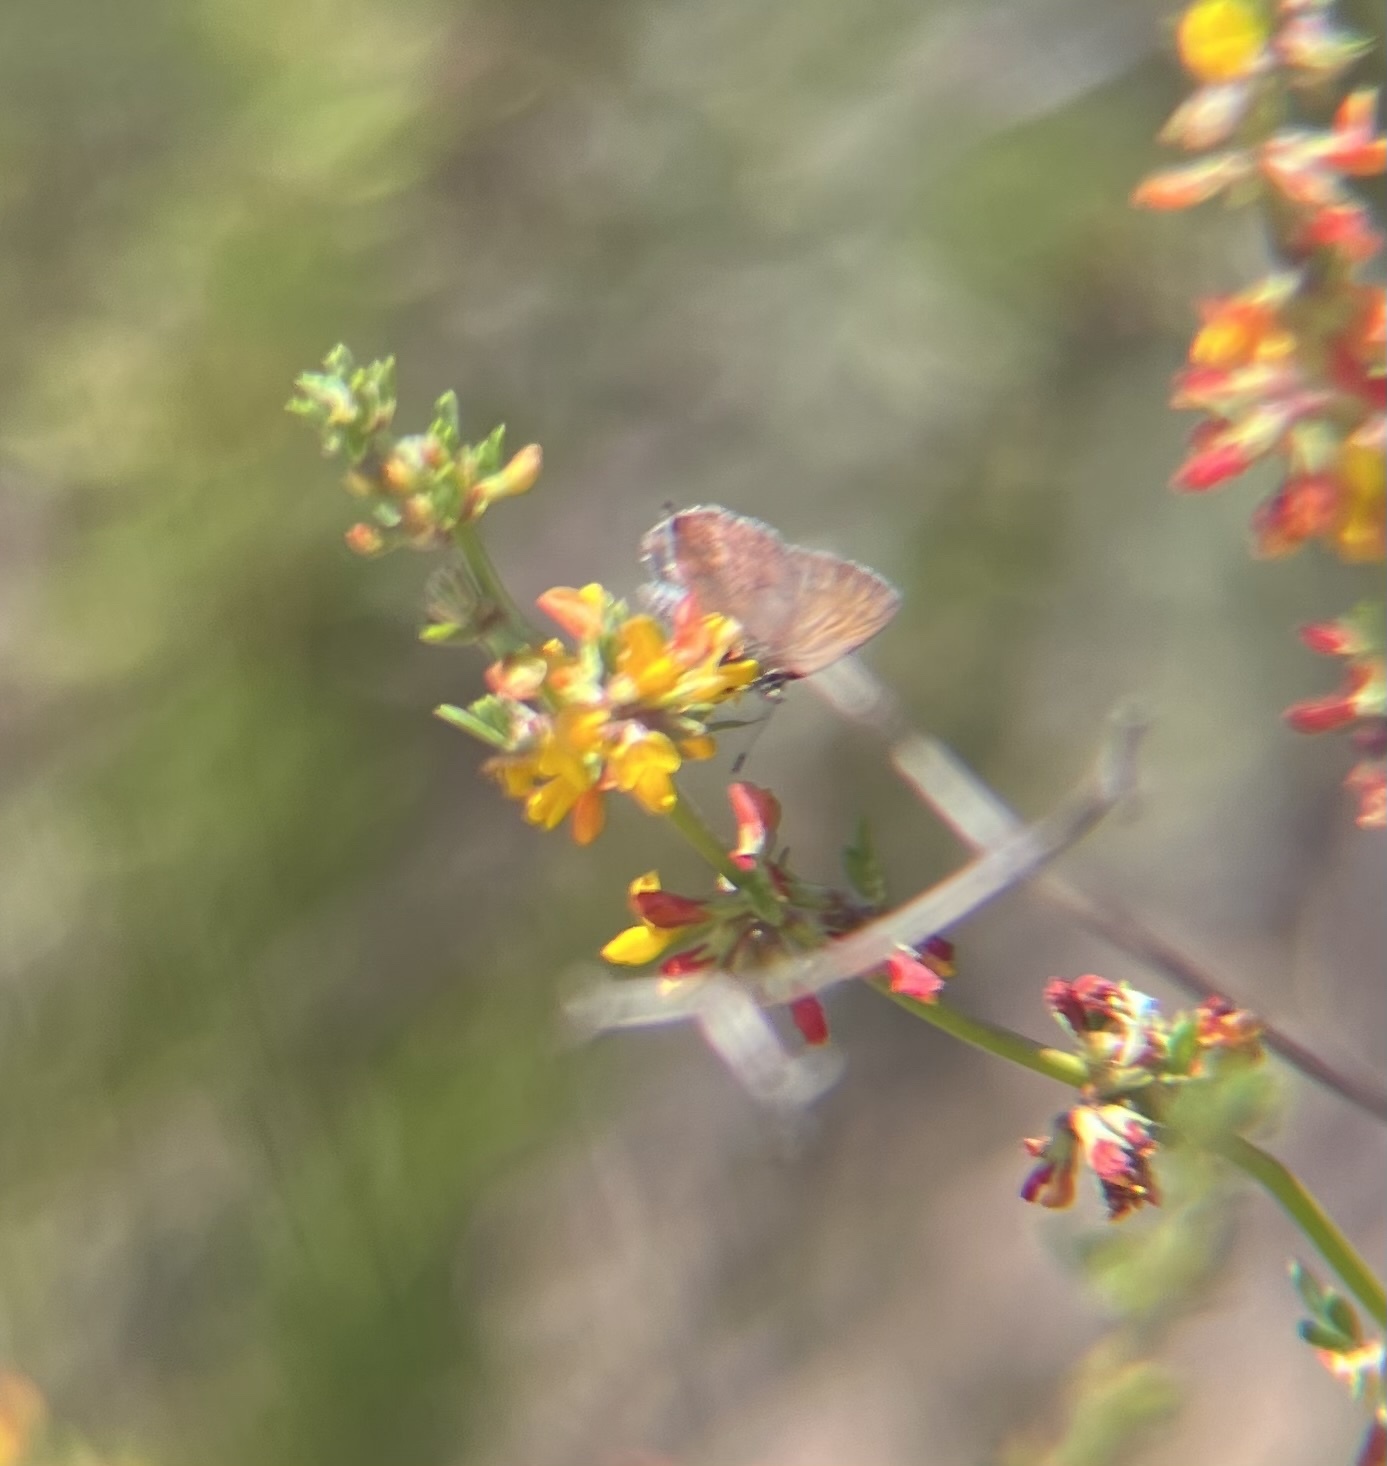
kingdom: Animalia
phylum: Arthropoda
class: Insecta
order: Lepidoptera
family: Lycaenidae
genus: Incisalia
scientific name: Incisalia irioides
